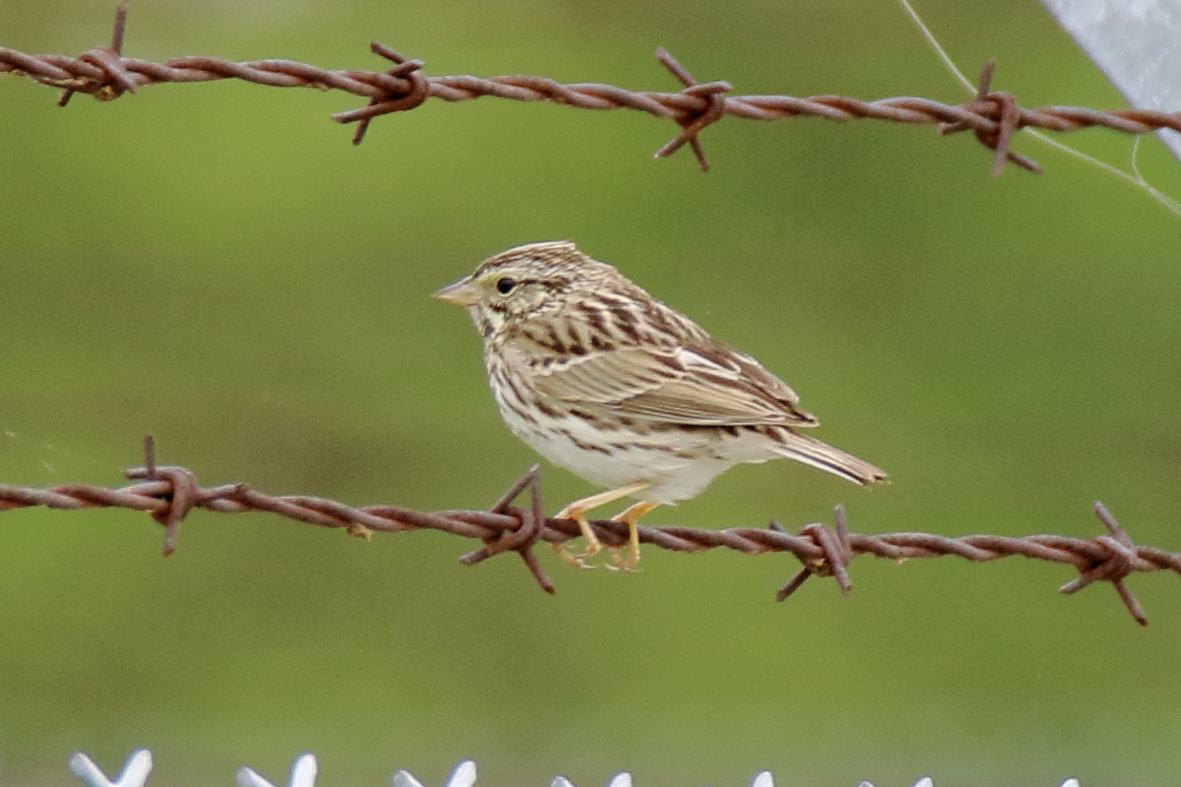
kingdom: Animalia
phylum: Chordata
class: Aves
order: Passeriformes
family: Passerellidae
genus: Passerculus
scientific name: Passerculus sandwichensis
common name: Savannah sparrow
